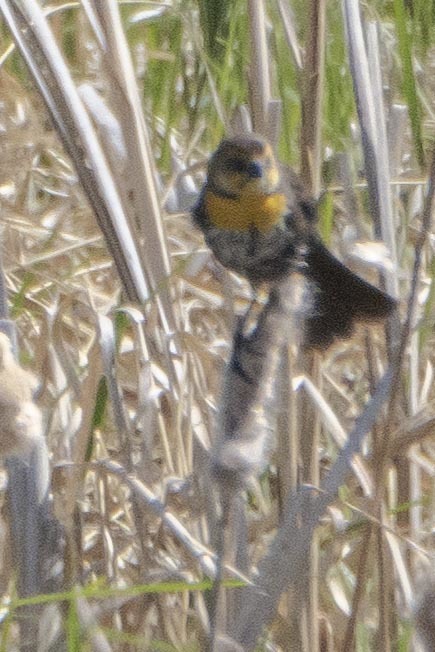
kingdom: Animalia
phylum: Chordata
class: Aves
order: Passeriformes
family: Icteridae
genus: Xanthocephalus
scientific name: Xanthocephalus xanthocephalus
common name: Yellow-headed blackbird
